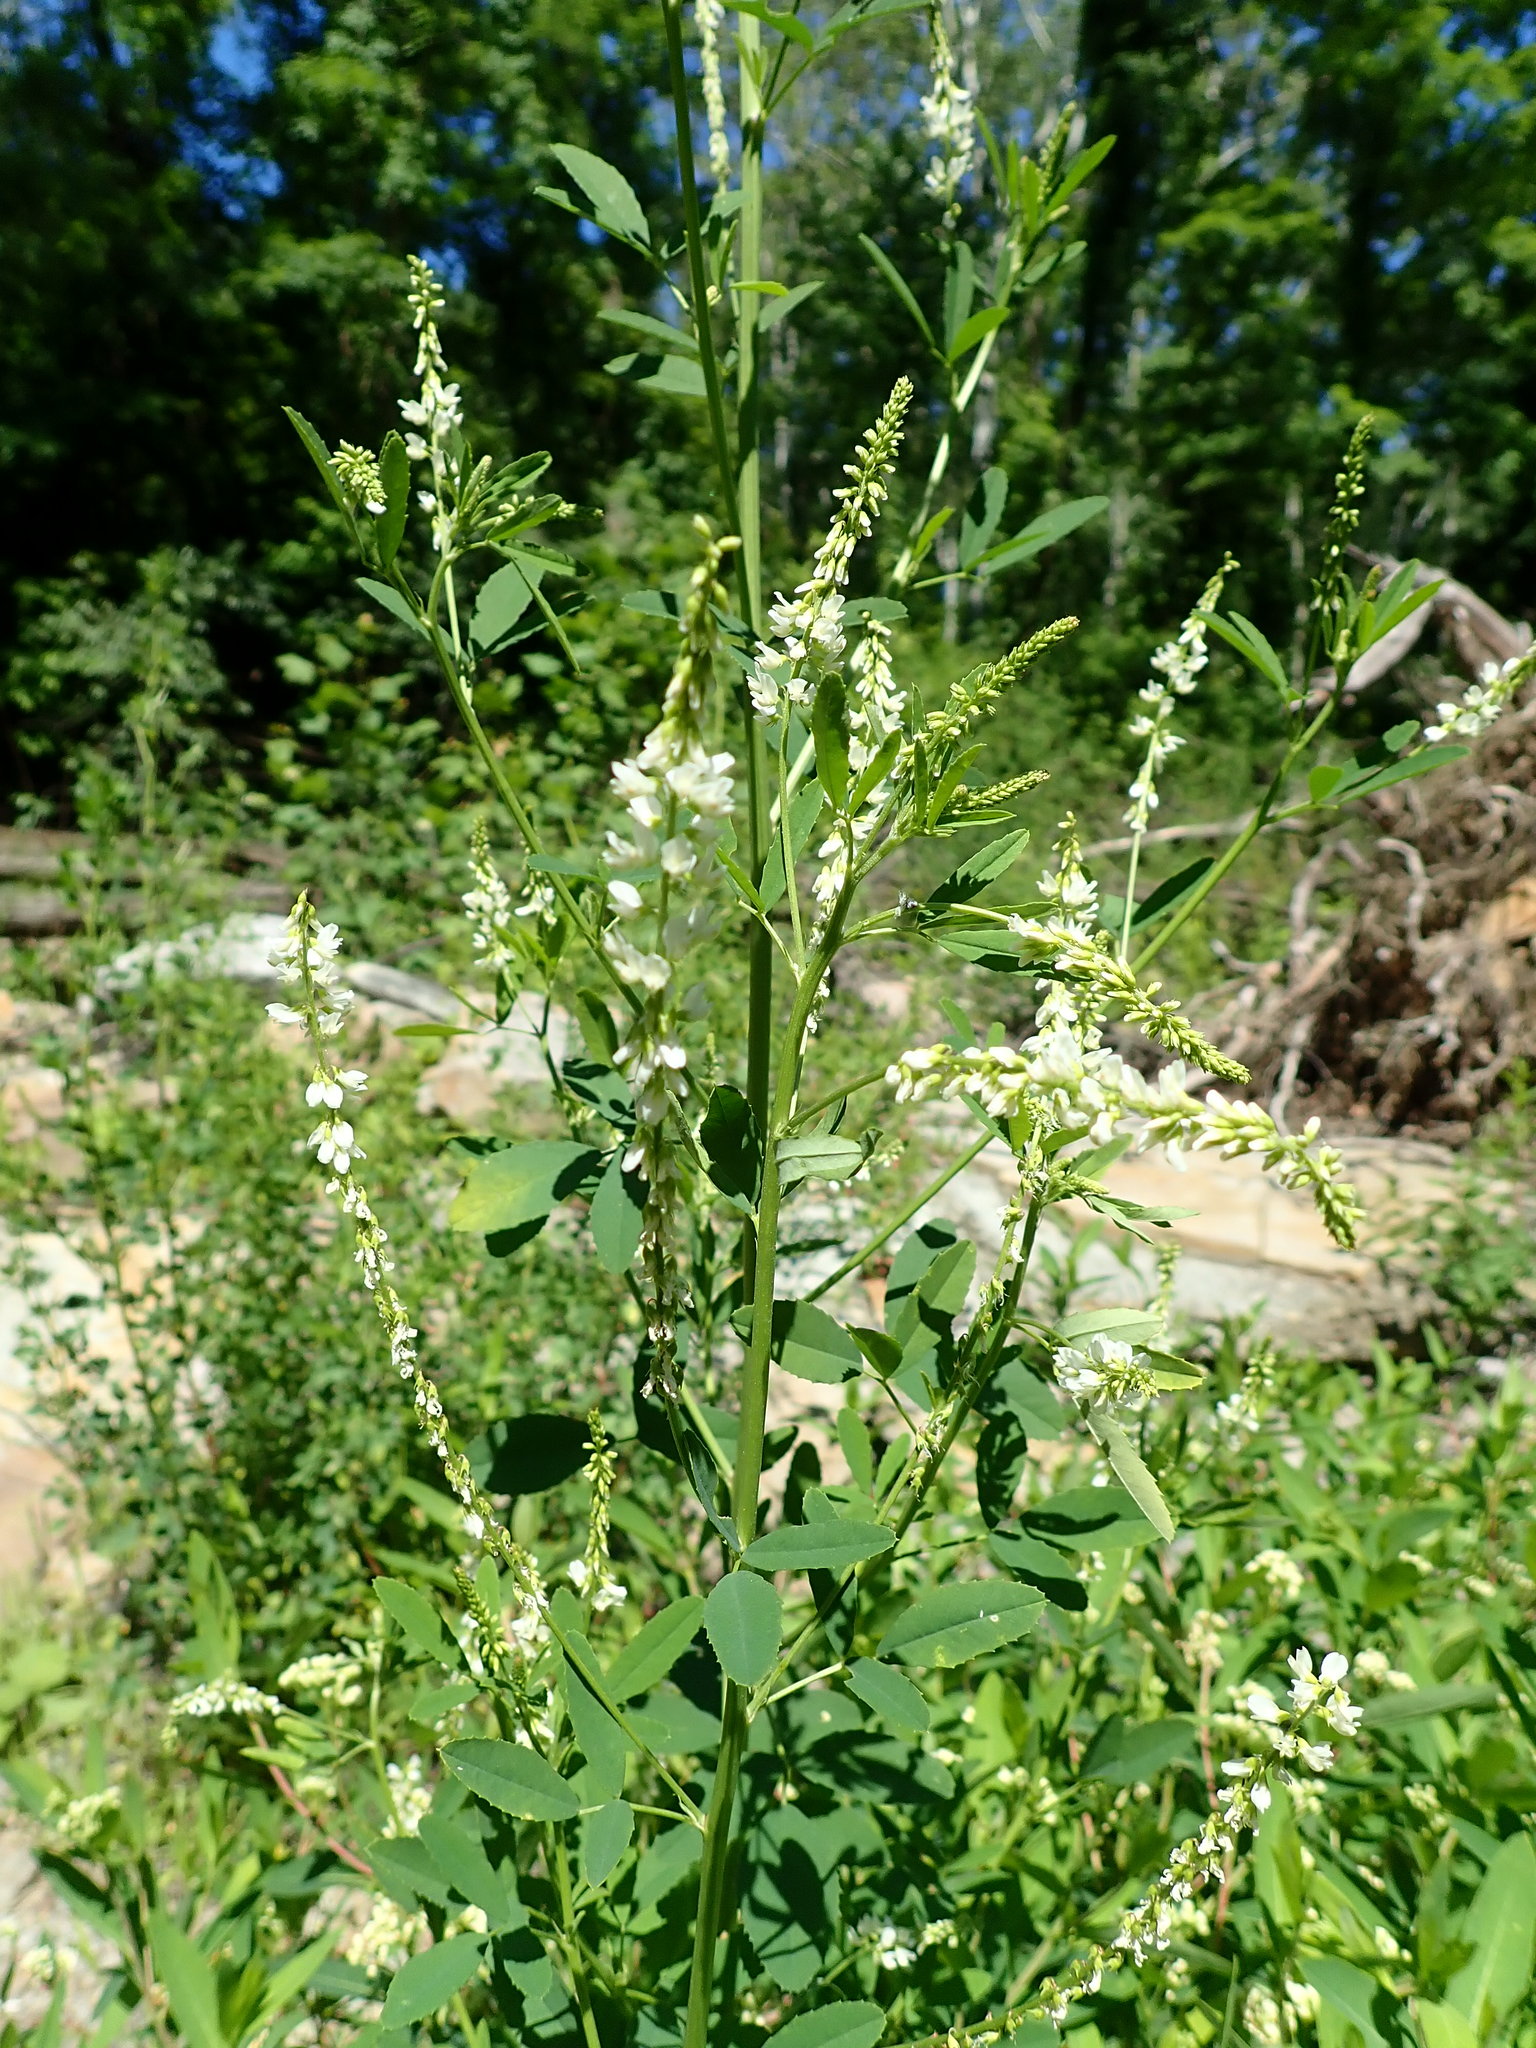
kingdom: Plantae
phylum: Tracheophyta
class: Magnoliopsida
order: Fabales
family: Fabaceae
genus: Melilotus
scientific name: Melilotus albus
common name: White melilot
